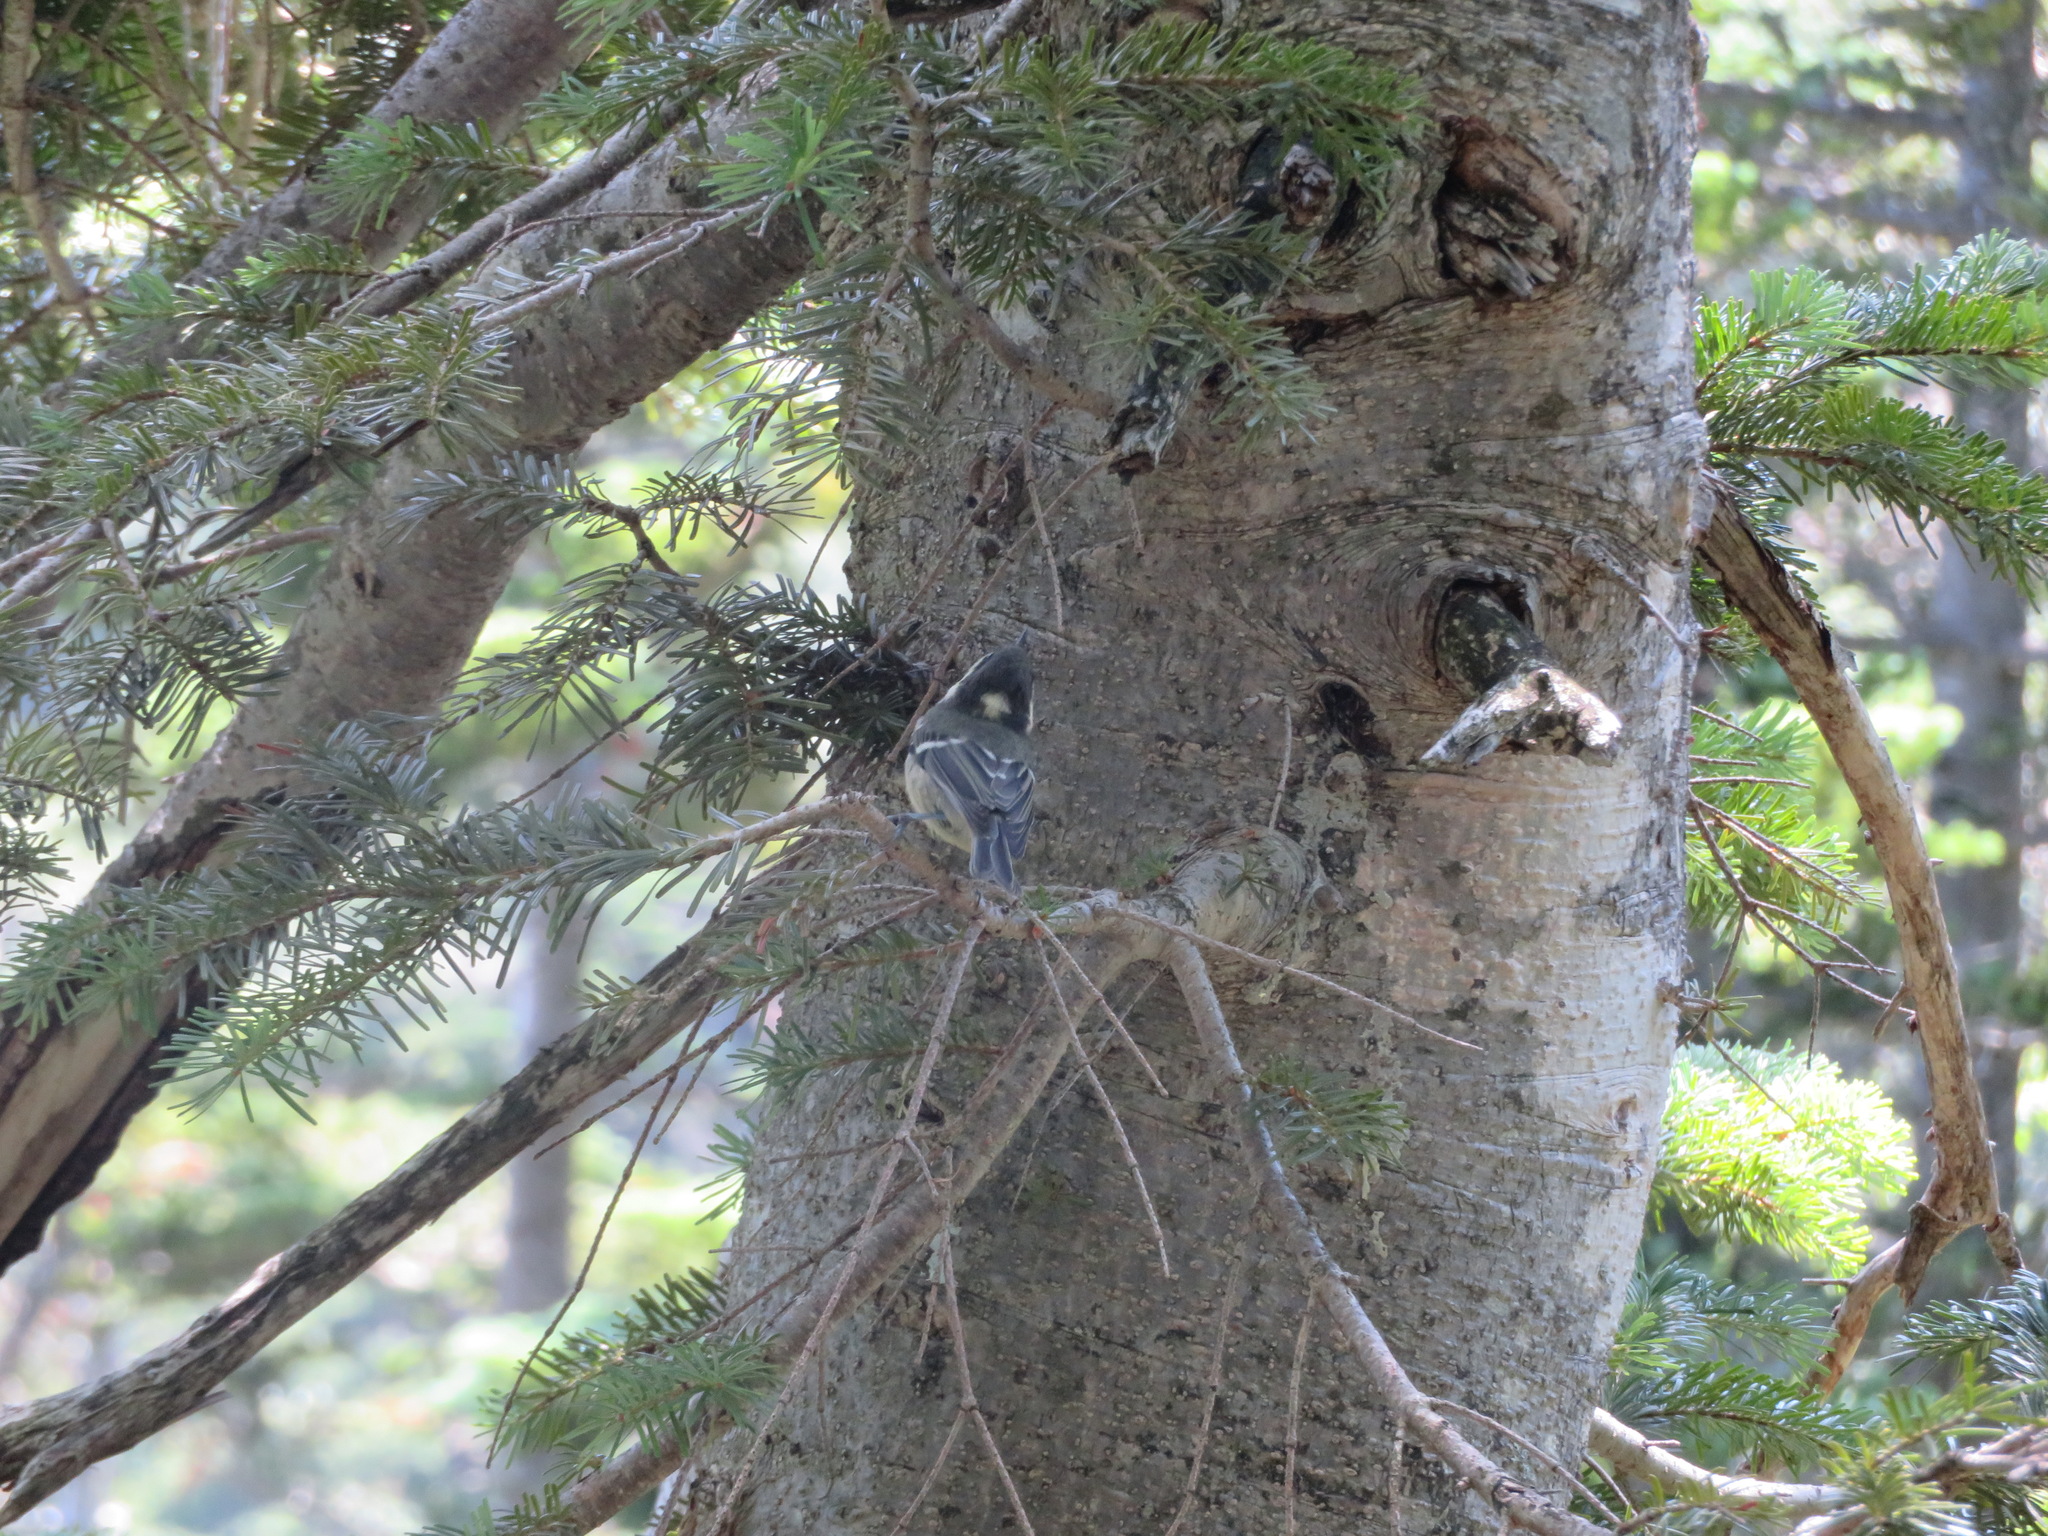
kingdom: Animalia
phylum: Chordata
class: Aves
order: Passeriformes
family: Paridae
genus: Parus
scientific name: Parus minor
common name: Japanese tit
